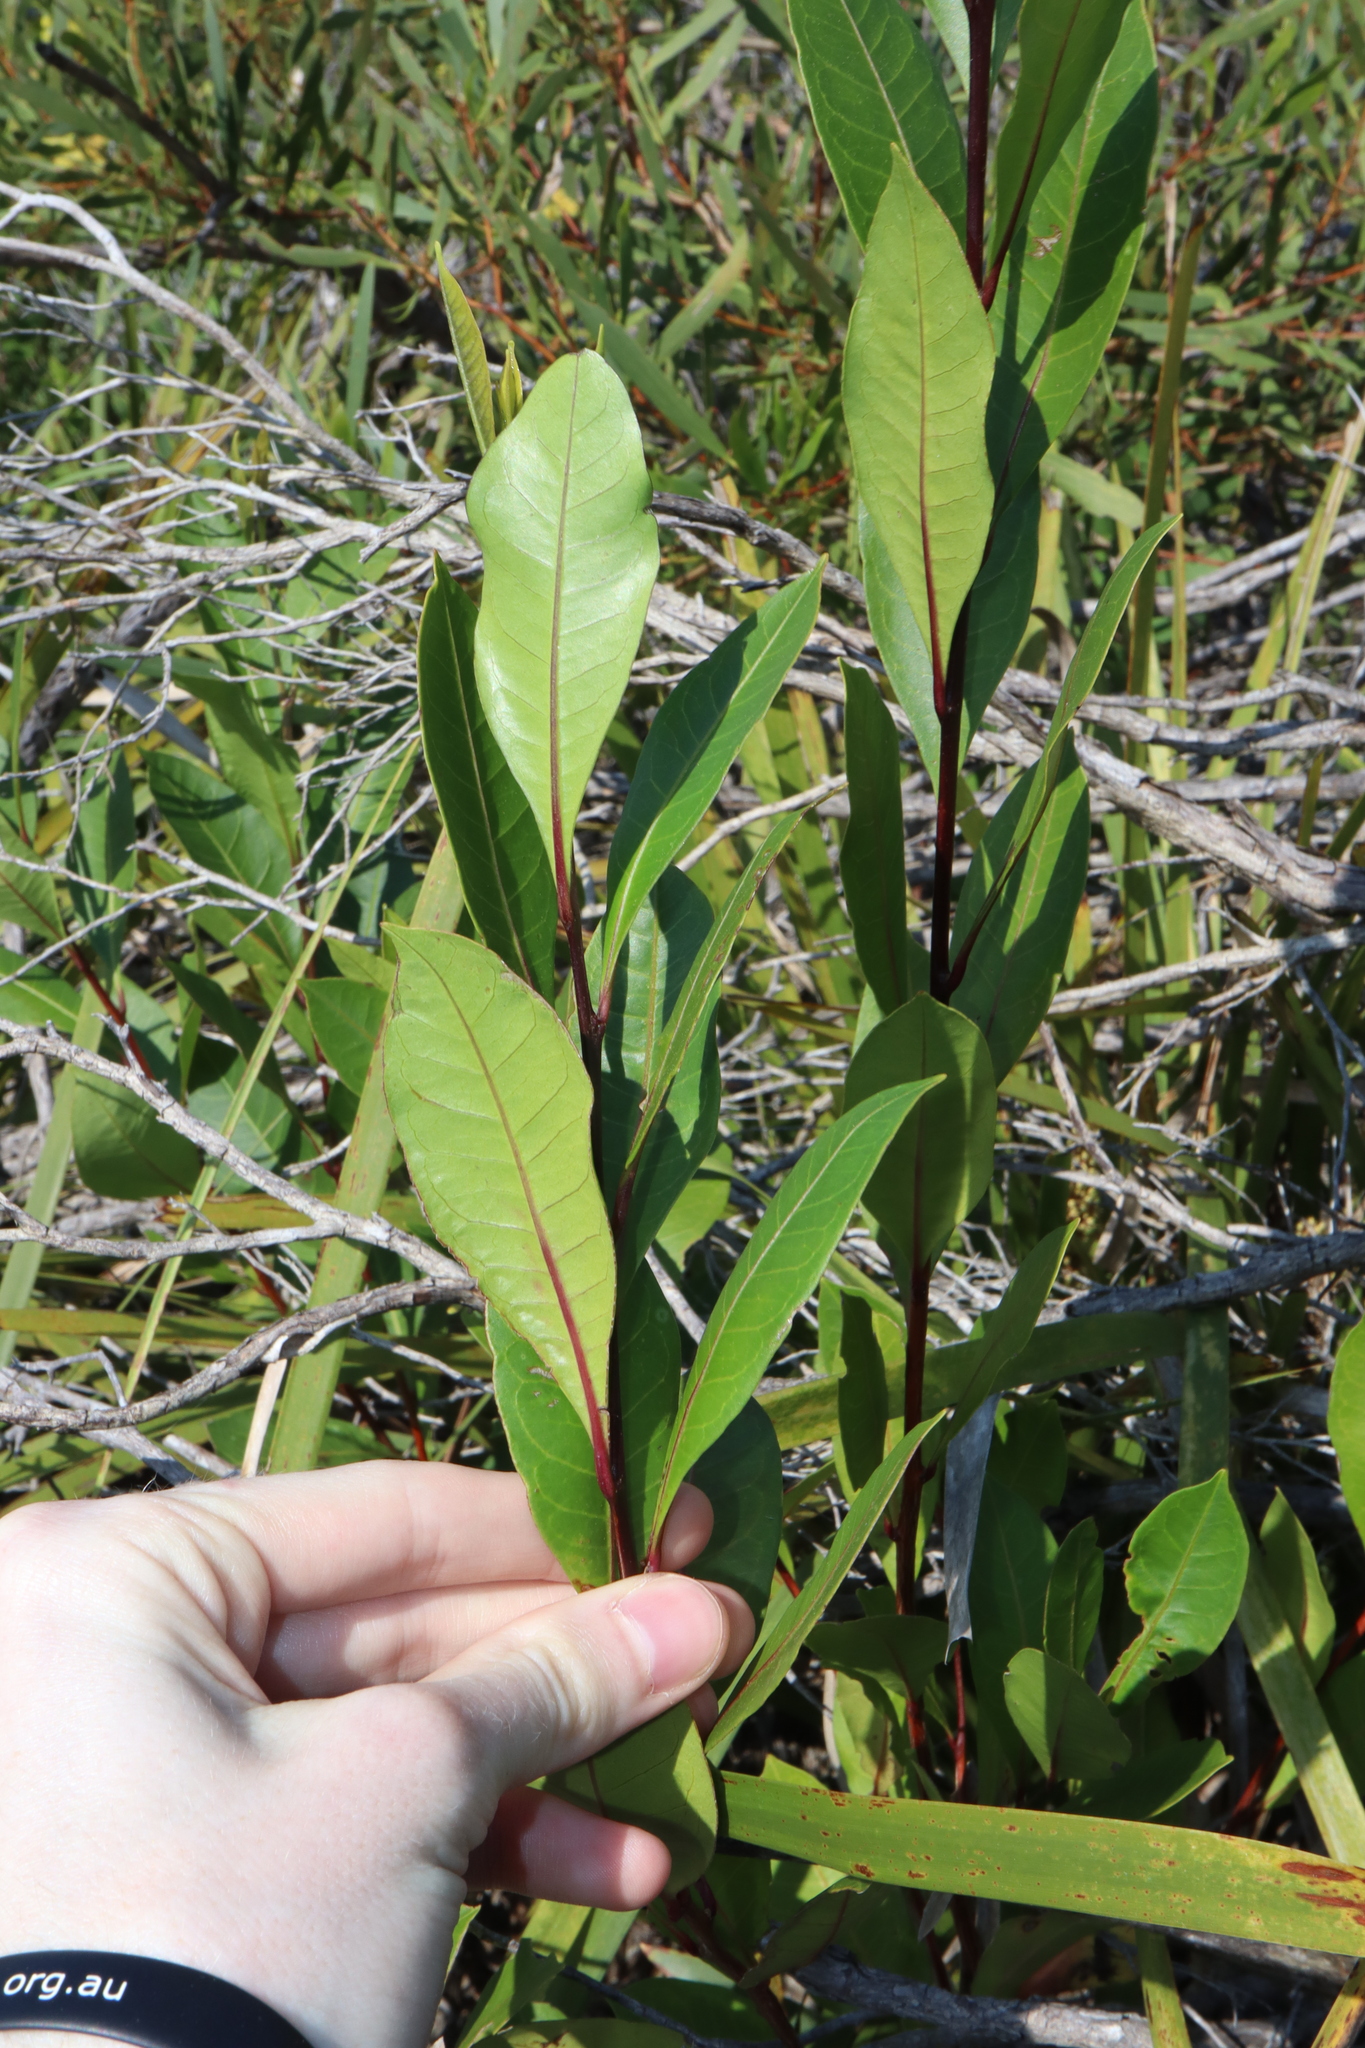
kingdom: Plantae
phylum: Tracheophyta
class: Magnoliopsida
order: Sapindales
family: Sapindaceae
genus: Dodonaea
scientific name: Dodonaea triquetra
